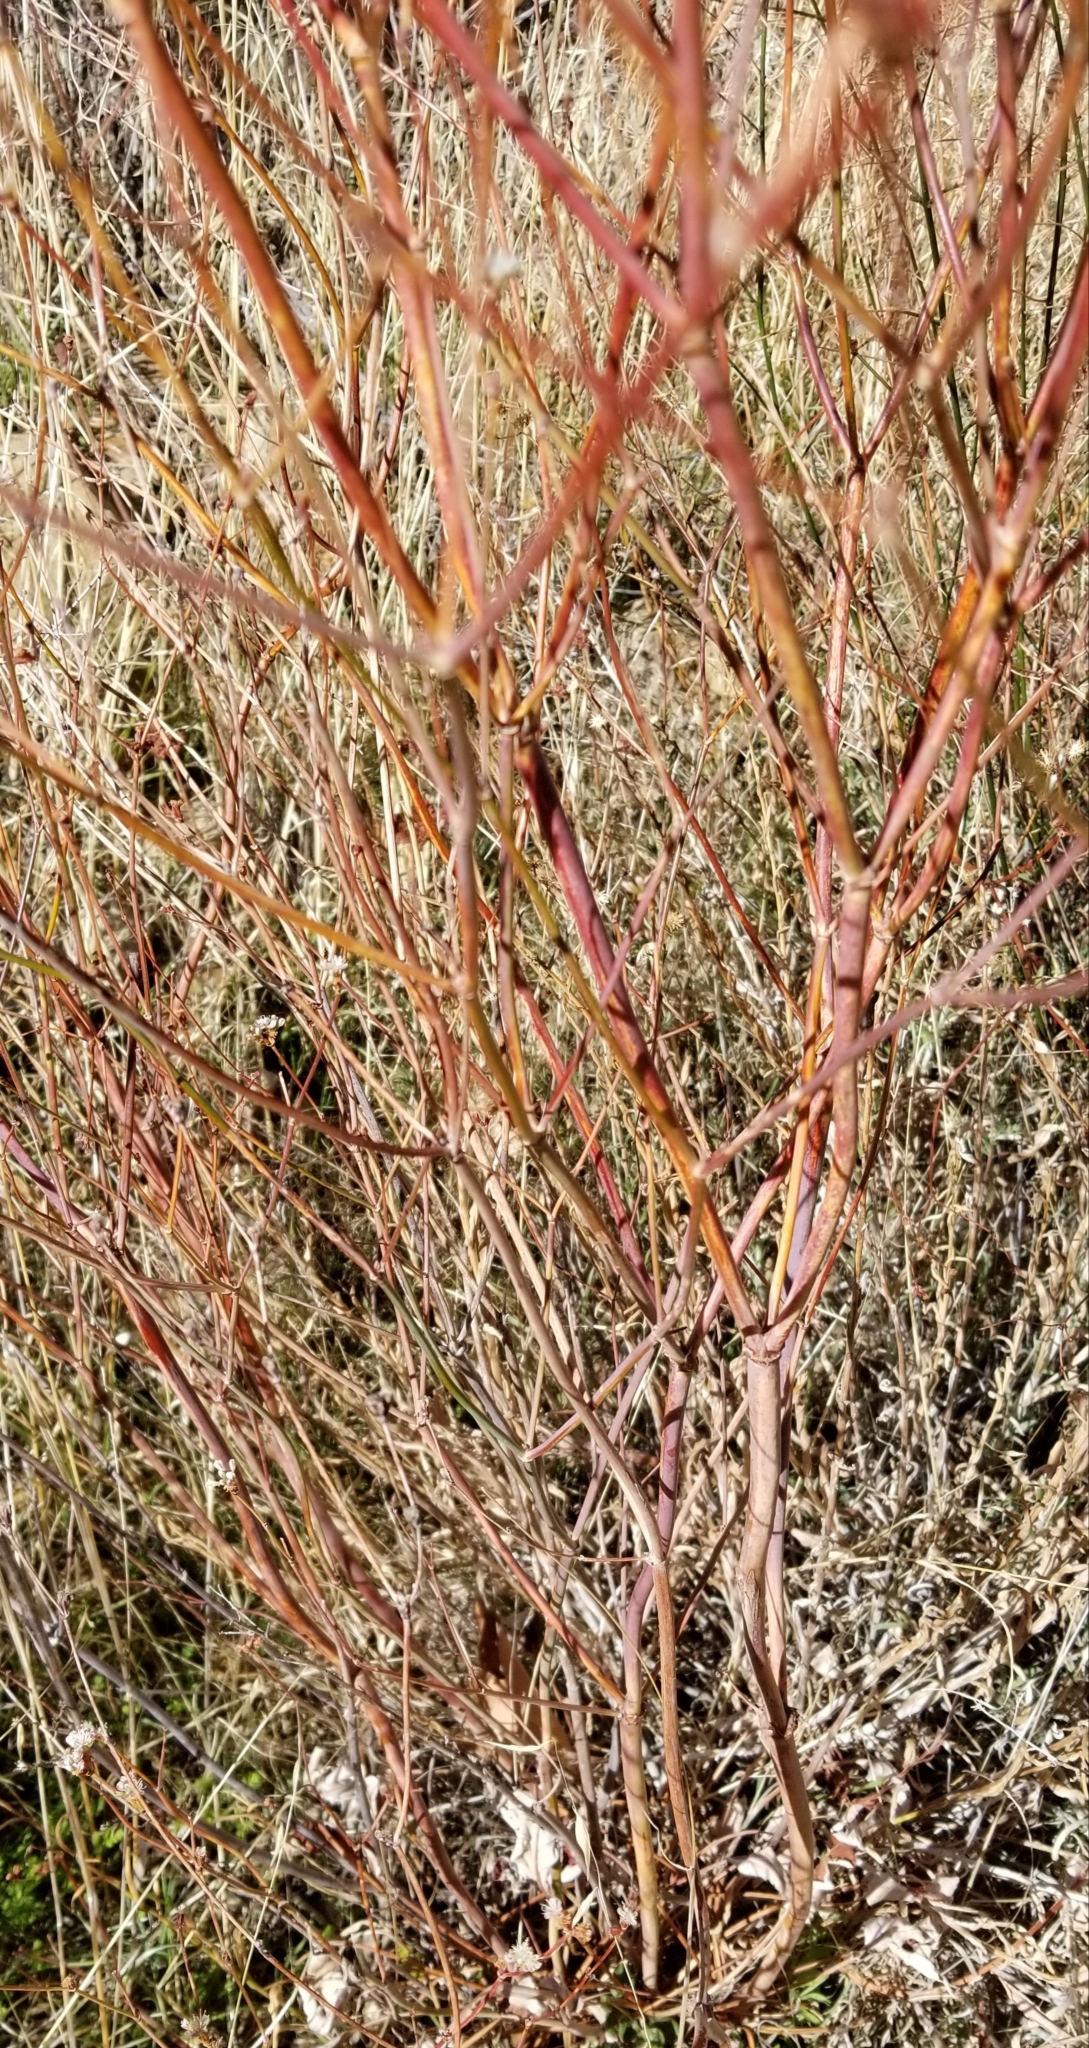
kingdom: Plantae
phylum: Tracheophyta
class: Magnoliopsida
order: Caryophyllales
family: Polygonaceae
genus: Eriogonum
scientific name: Eriogonum nudum
